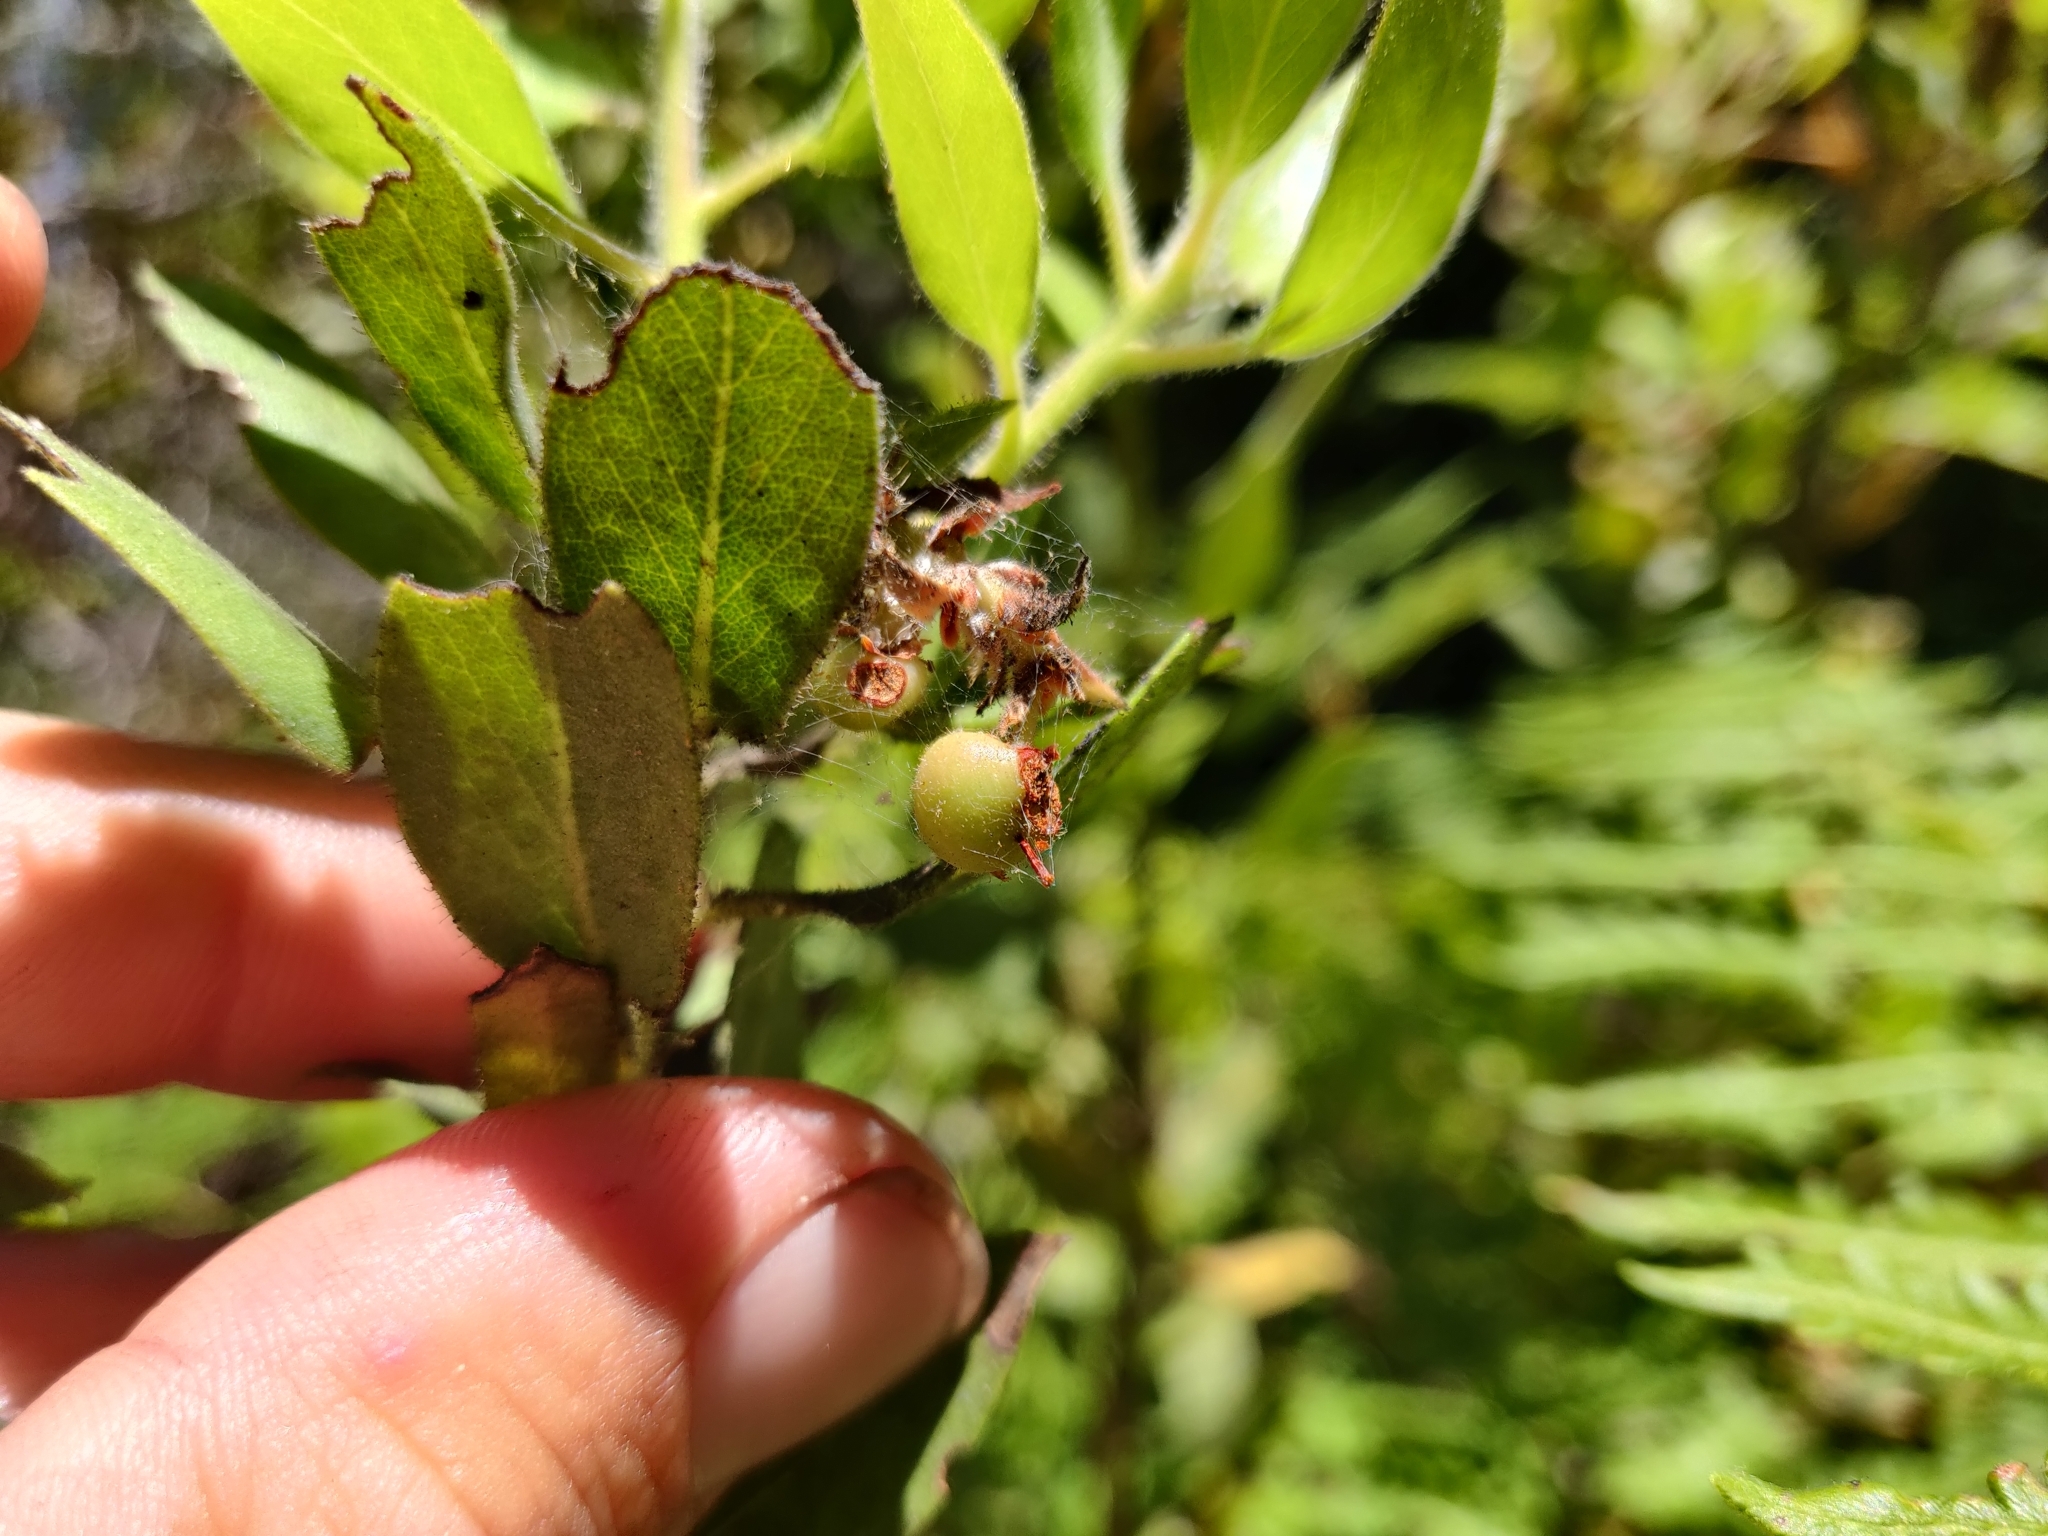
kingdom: Plantae
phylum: Tracheophyta
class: Magnoliopsida
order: Ericales
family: Ericaceae
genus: Arctostaphylos
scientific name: Arctostaphylos columbiana
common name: Bristly bearberry
